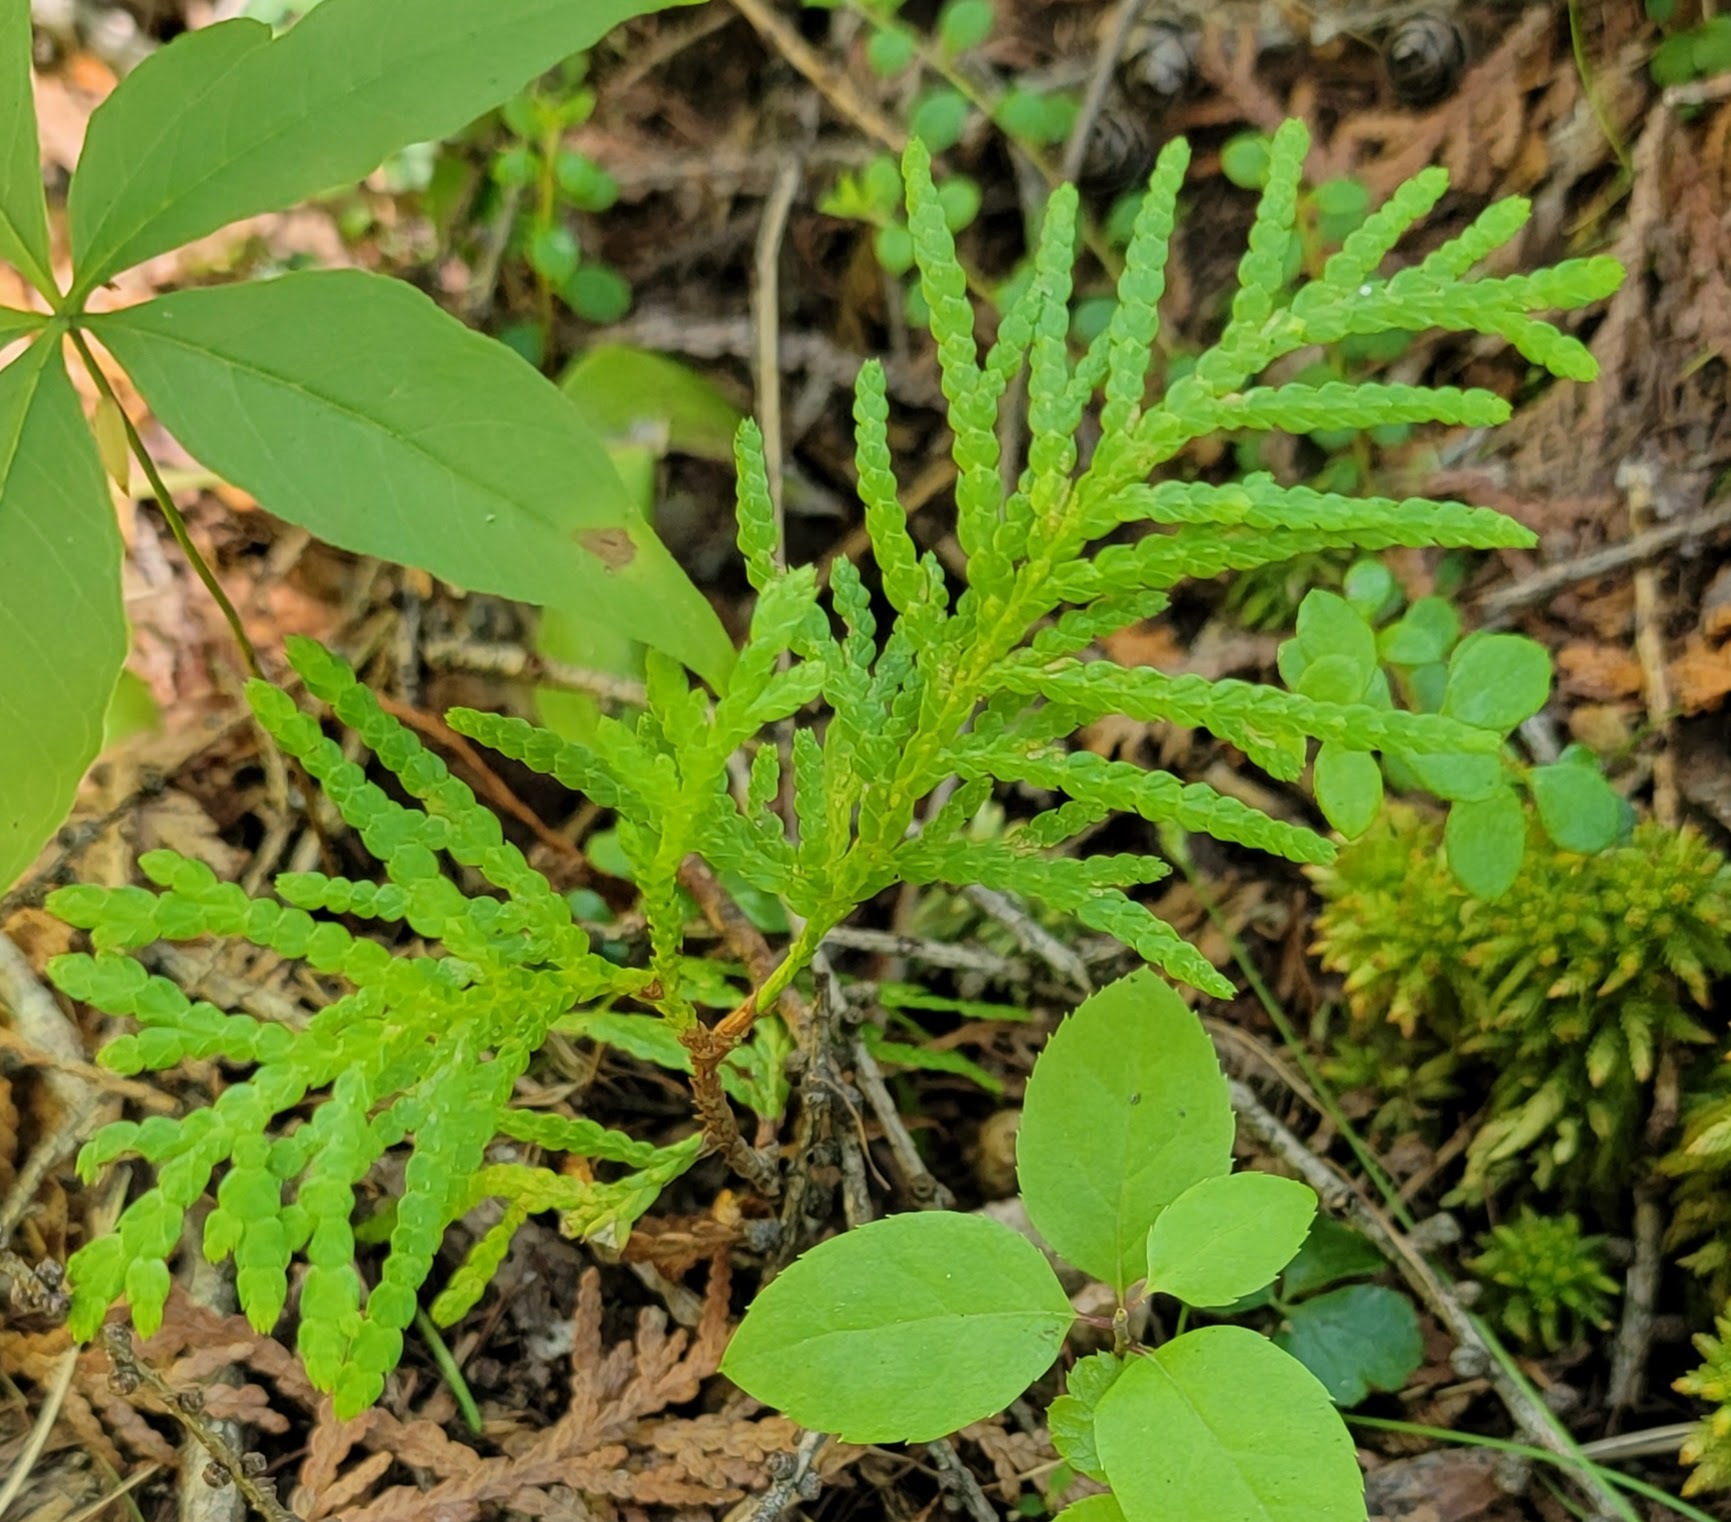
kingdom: Plantae
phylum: Tracheophyta
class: Pinopsida
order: Pinales
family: Cupressaceae
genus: Thuja
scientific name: Thuja occidentalis
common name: Northern white-cedar
